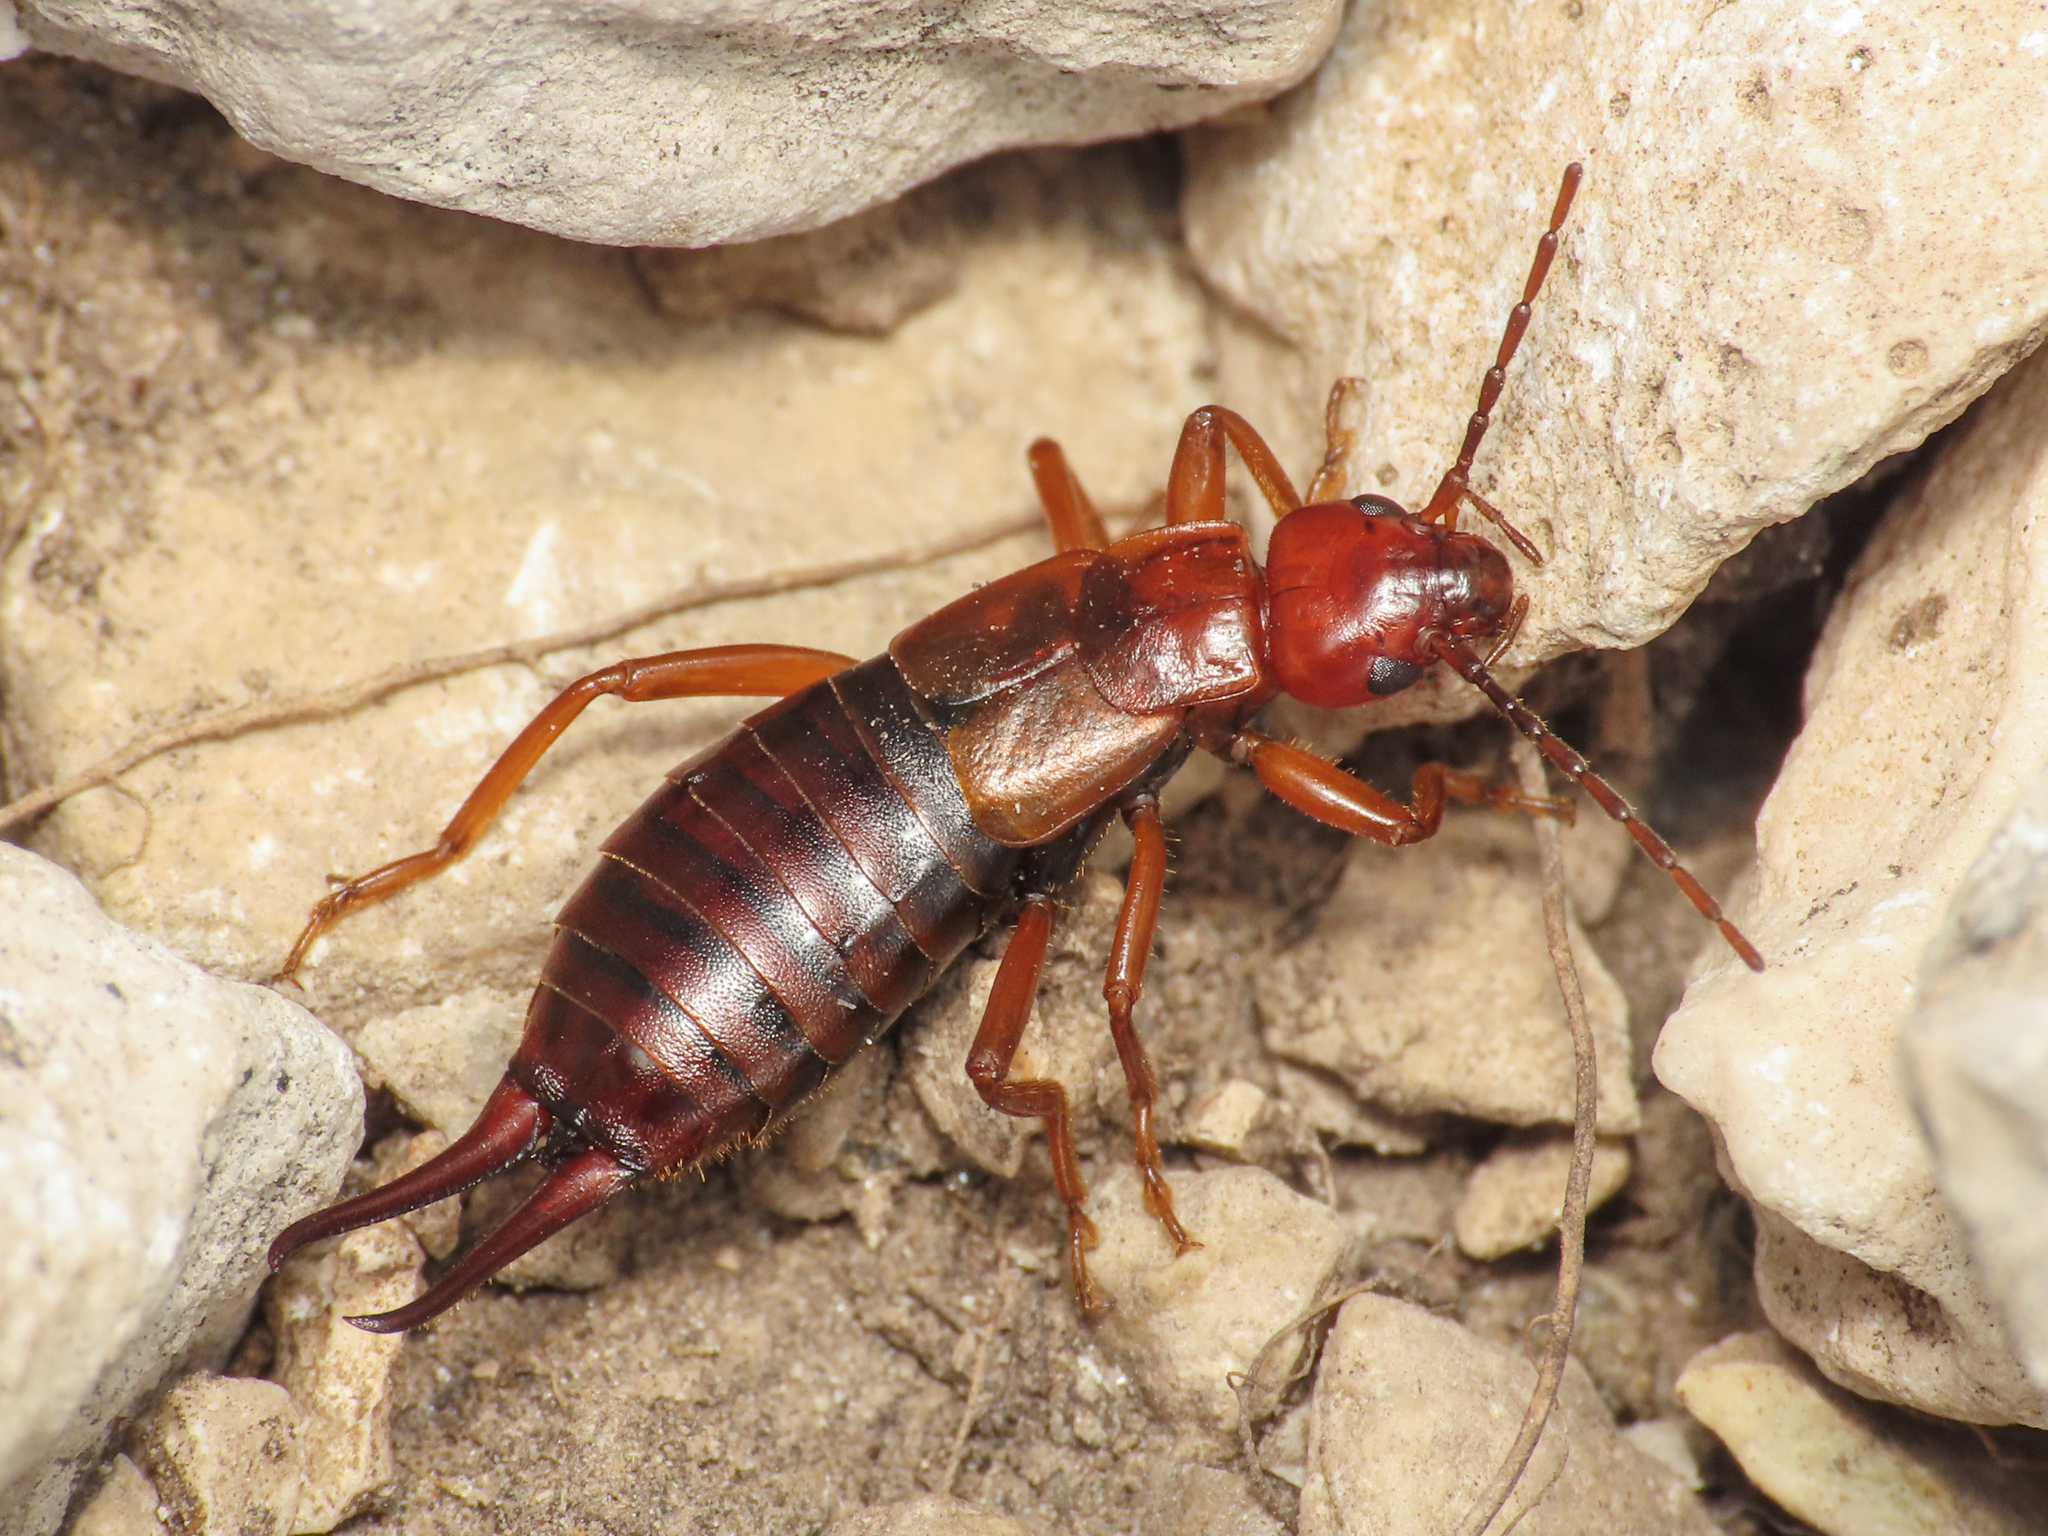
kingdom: Animalia
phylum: Arthropoda
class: Insecta
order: Dermaptera
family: Forficulidae
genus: Forficula
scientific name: Forficula apennina
